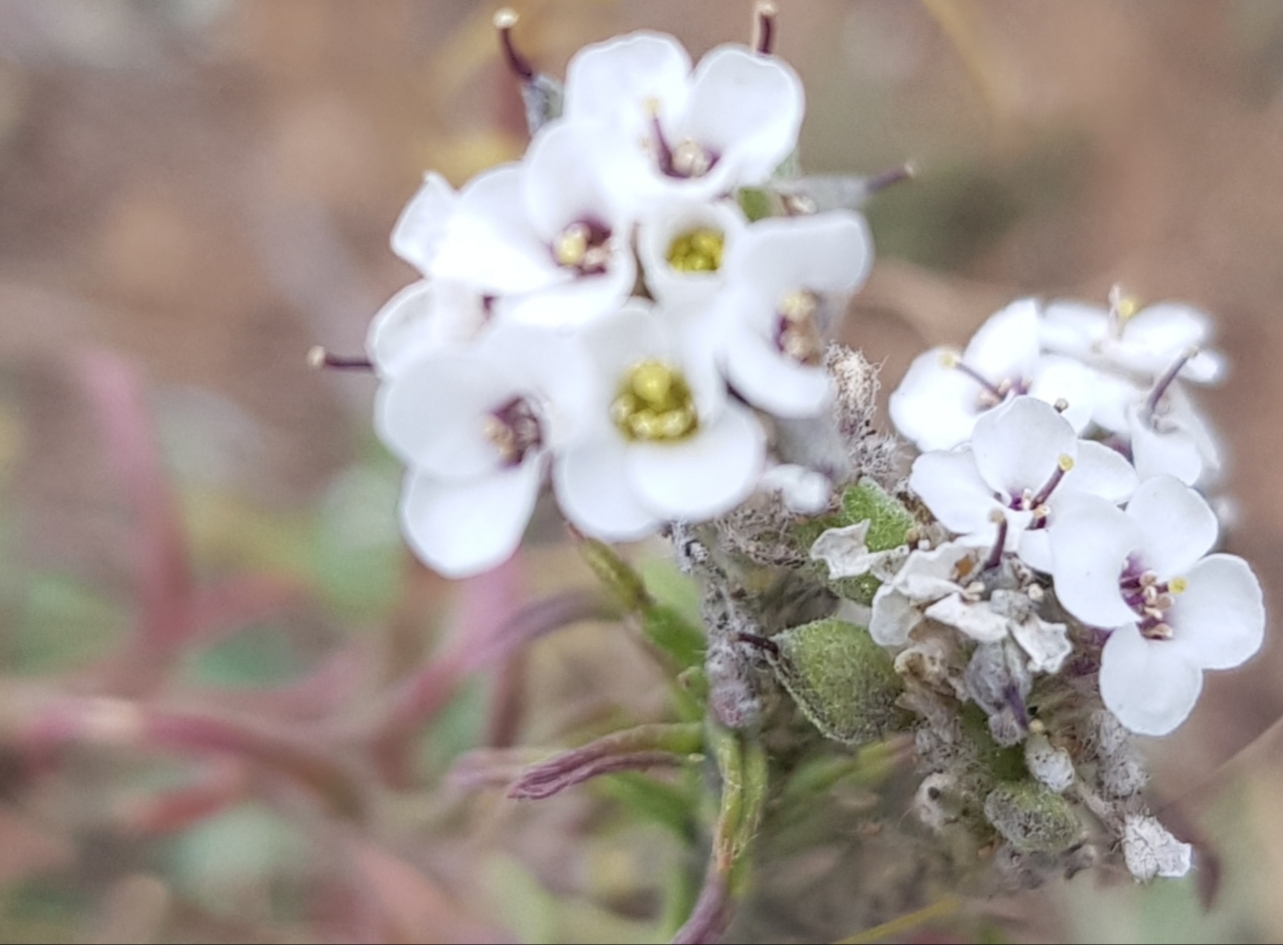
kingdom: Plantae
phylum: Tracheophyta
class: Magnoliopsida
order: Brassicales
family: Brassicaceae
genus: Stevenia
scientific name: Stevenia tenuifolia
